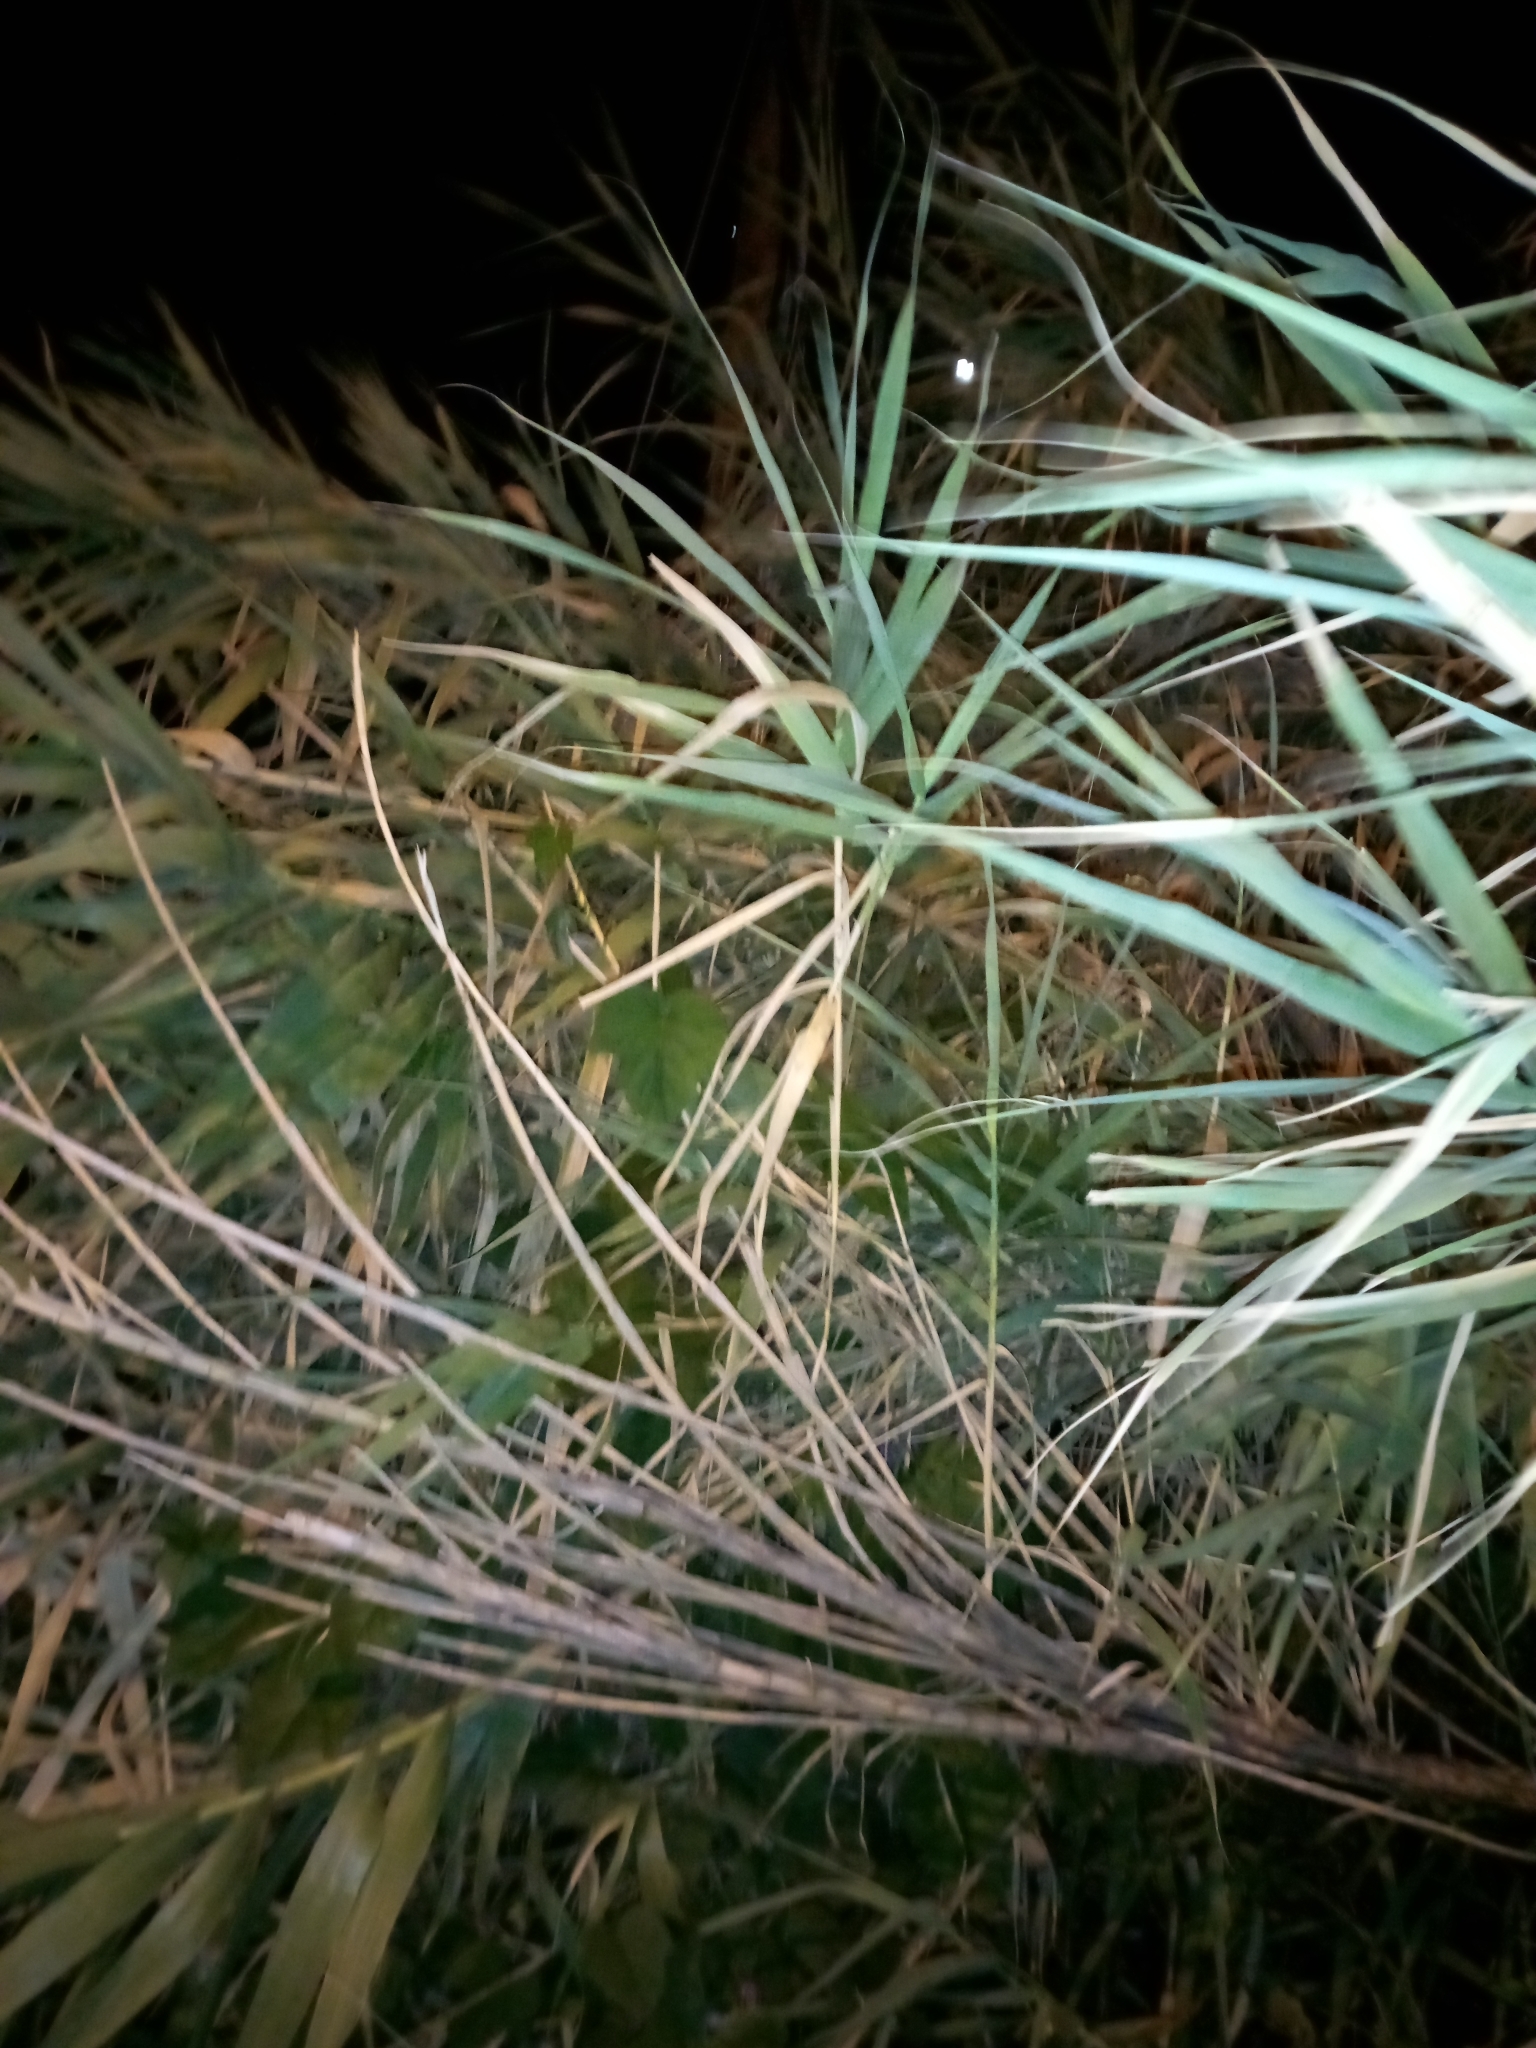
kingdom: Plantae
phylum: Tracheophyta
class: Liliopsida
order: Poales
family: Poaceae
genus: Arundo
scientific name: Arundo donax
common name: Giant reed
